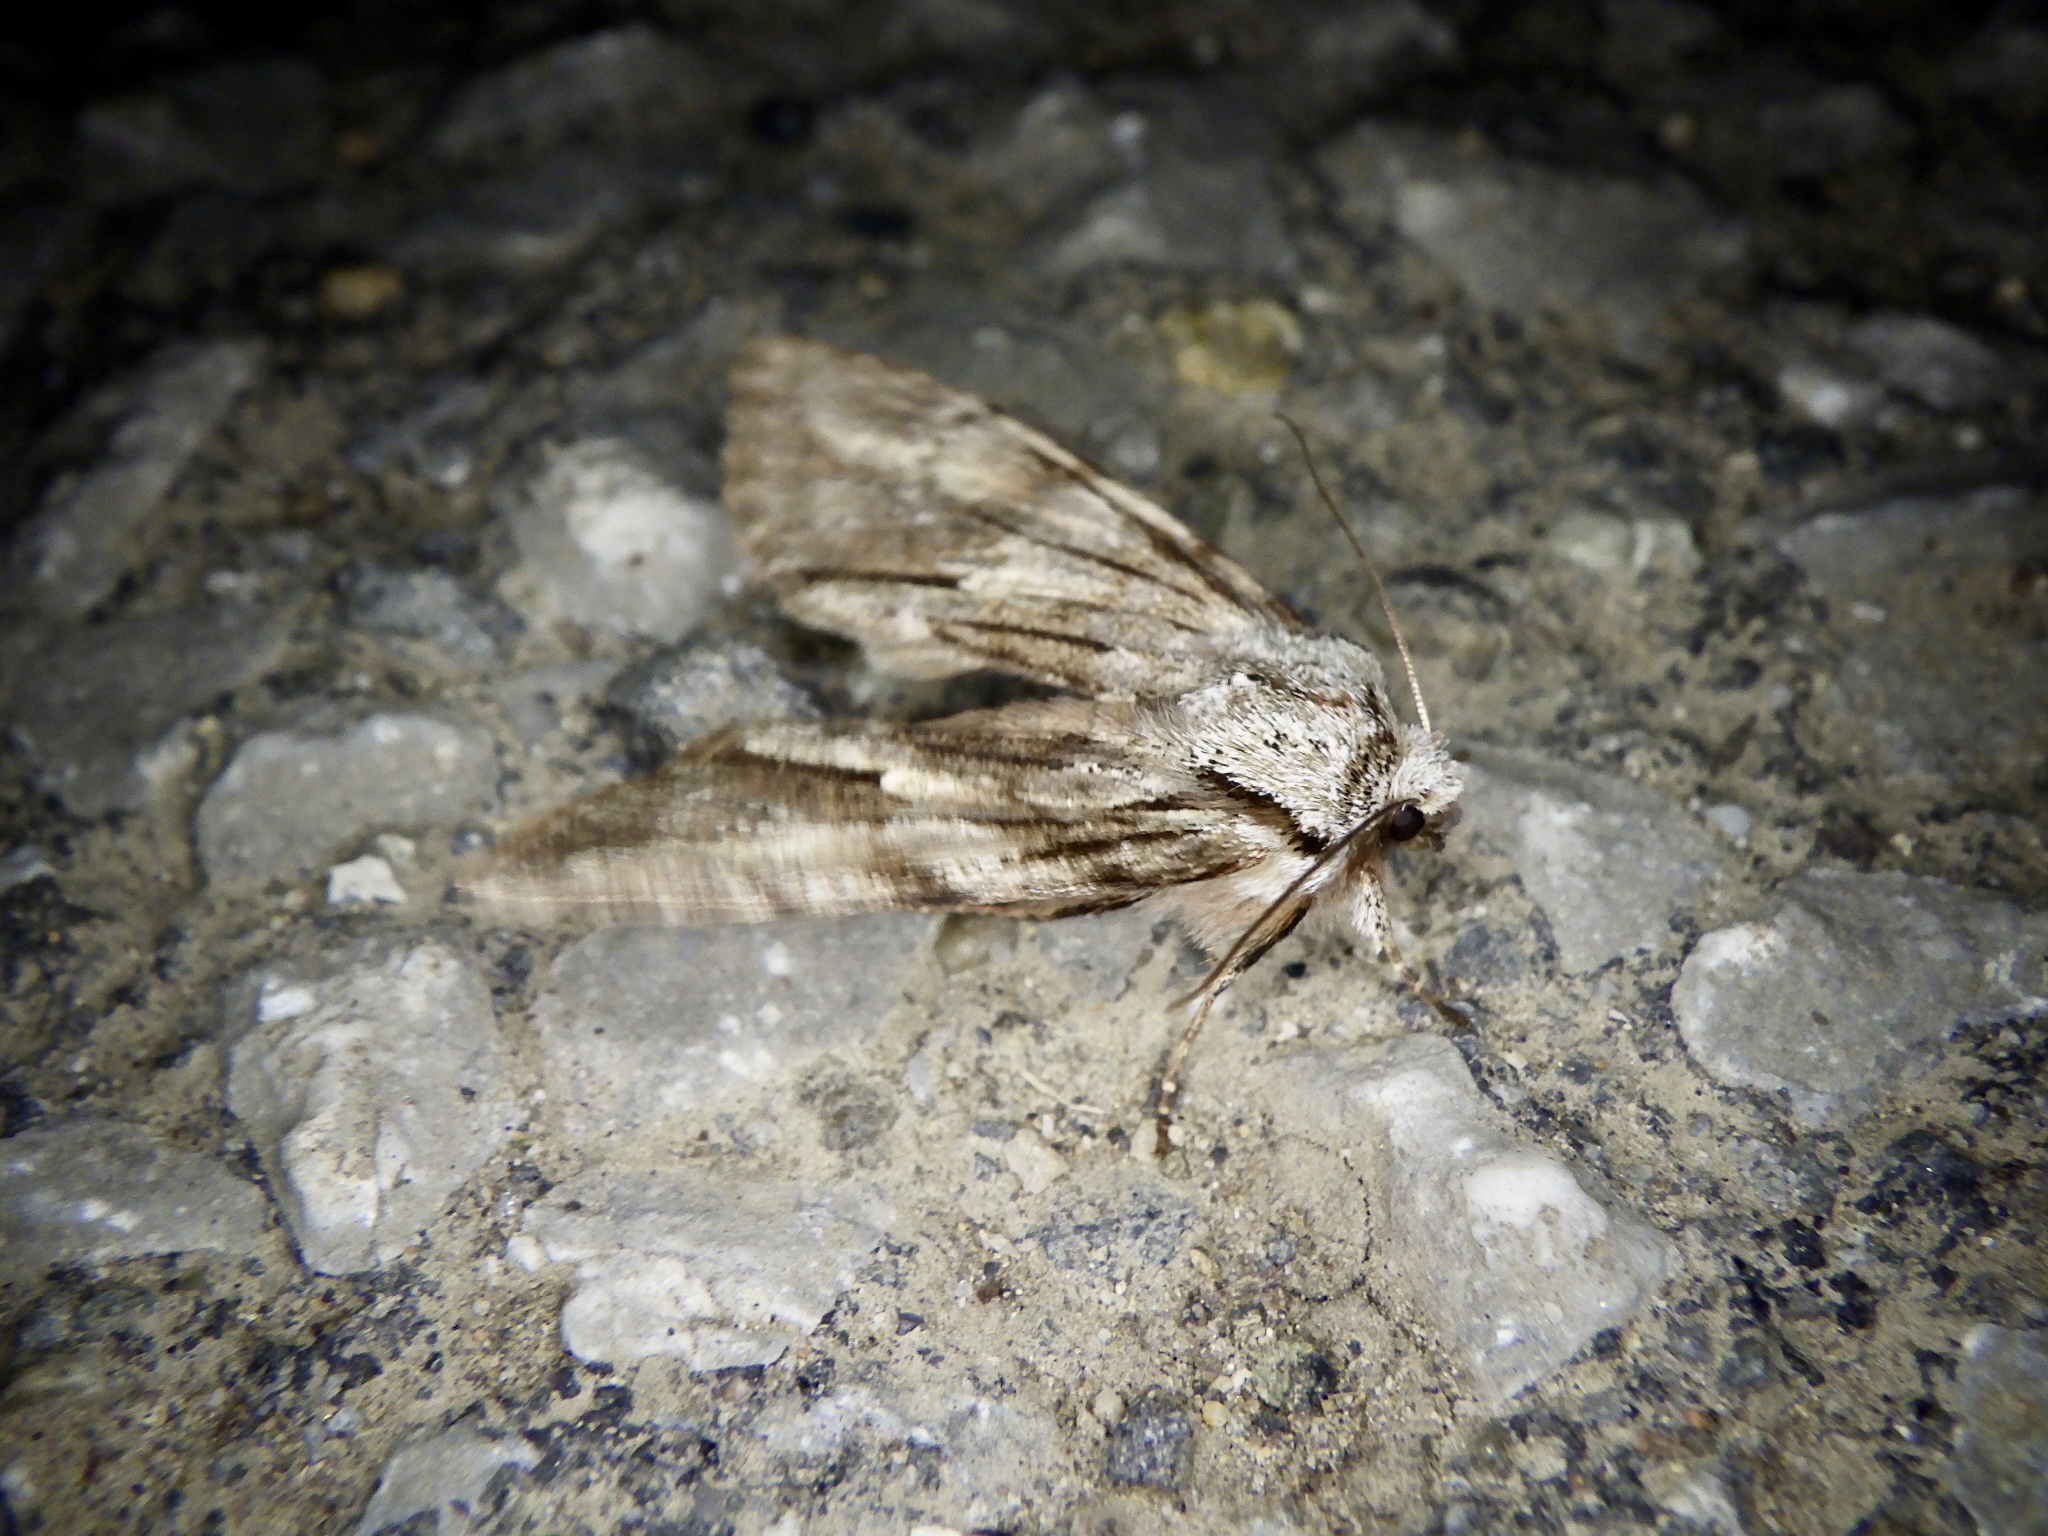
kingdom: Animalia
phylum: Arthropoda
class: Insecta
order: Lepidoptera
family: Noctuidae
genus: Egira
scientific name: Egira saxea
